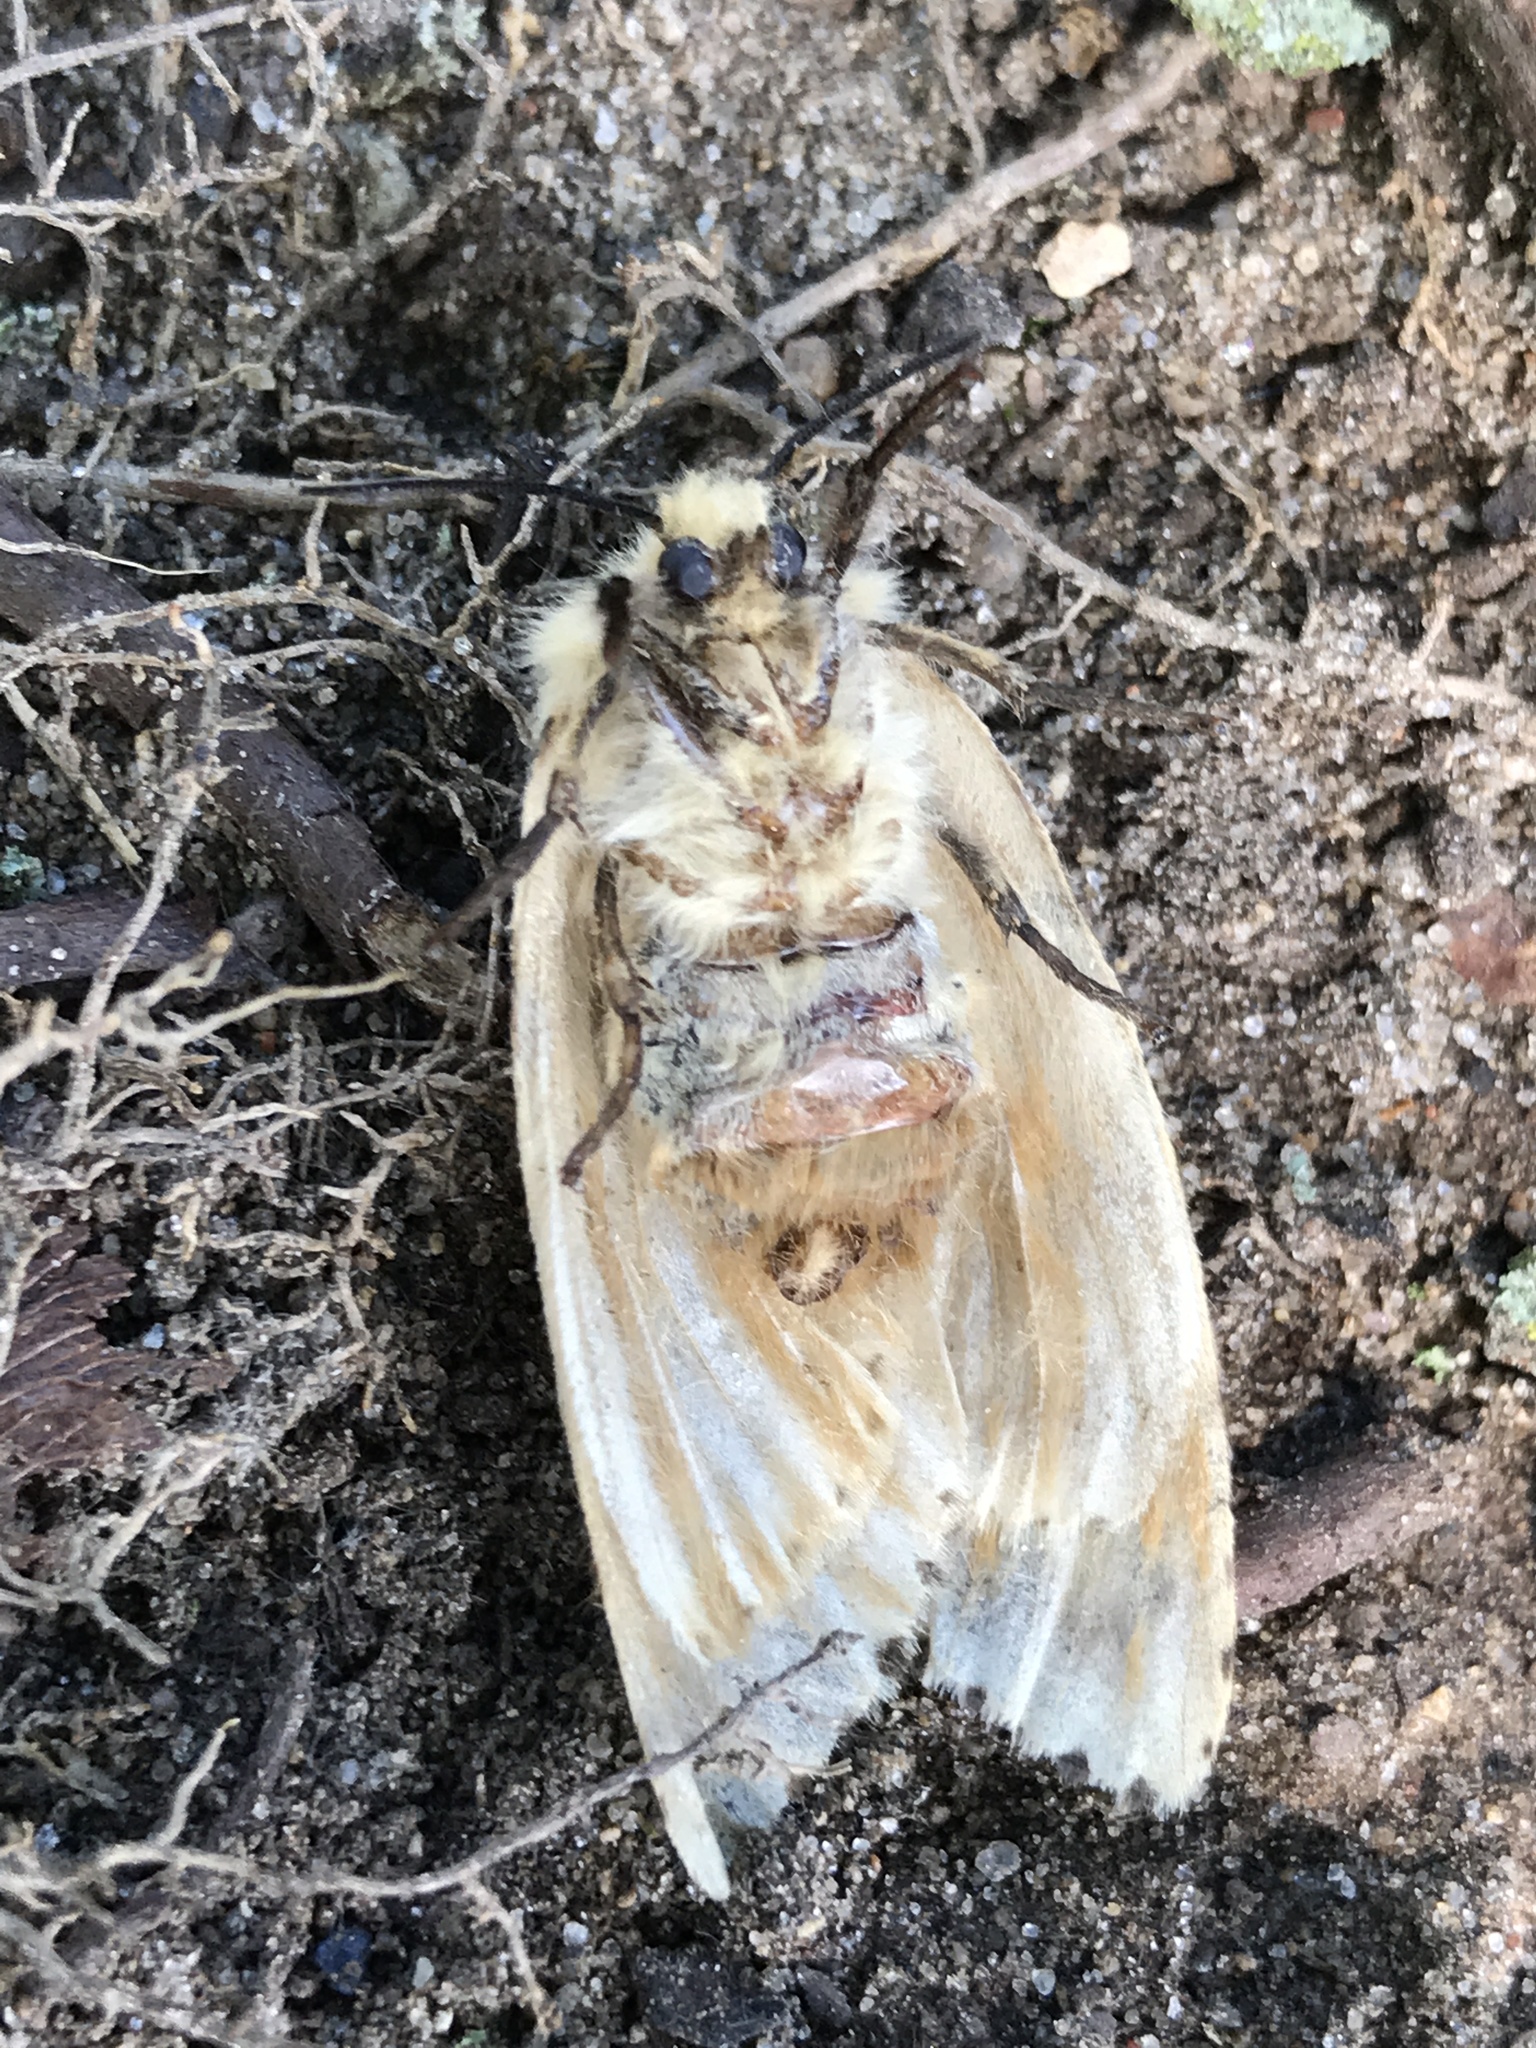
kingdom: Animalia
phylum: Arthropoda
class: Insecta
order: Lepidoptera
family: Erebidae
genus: Lymantria
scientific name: Lymantria dispar
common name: Gypsy moth
